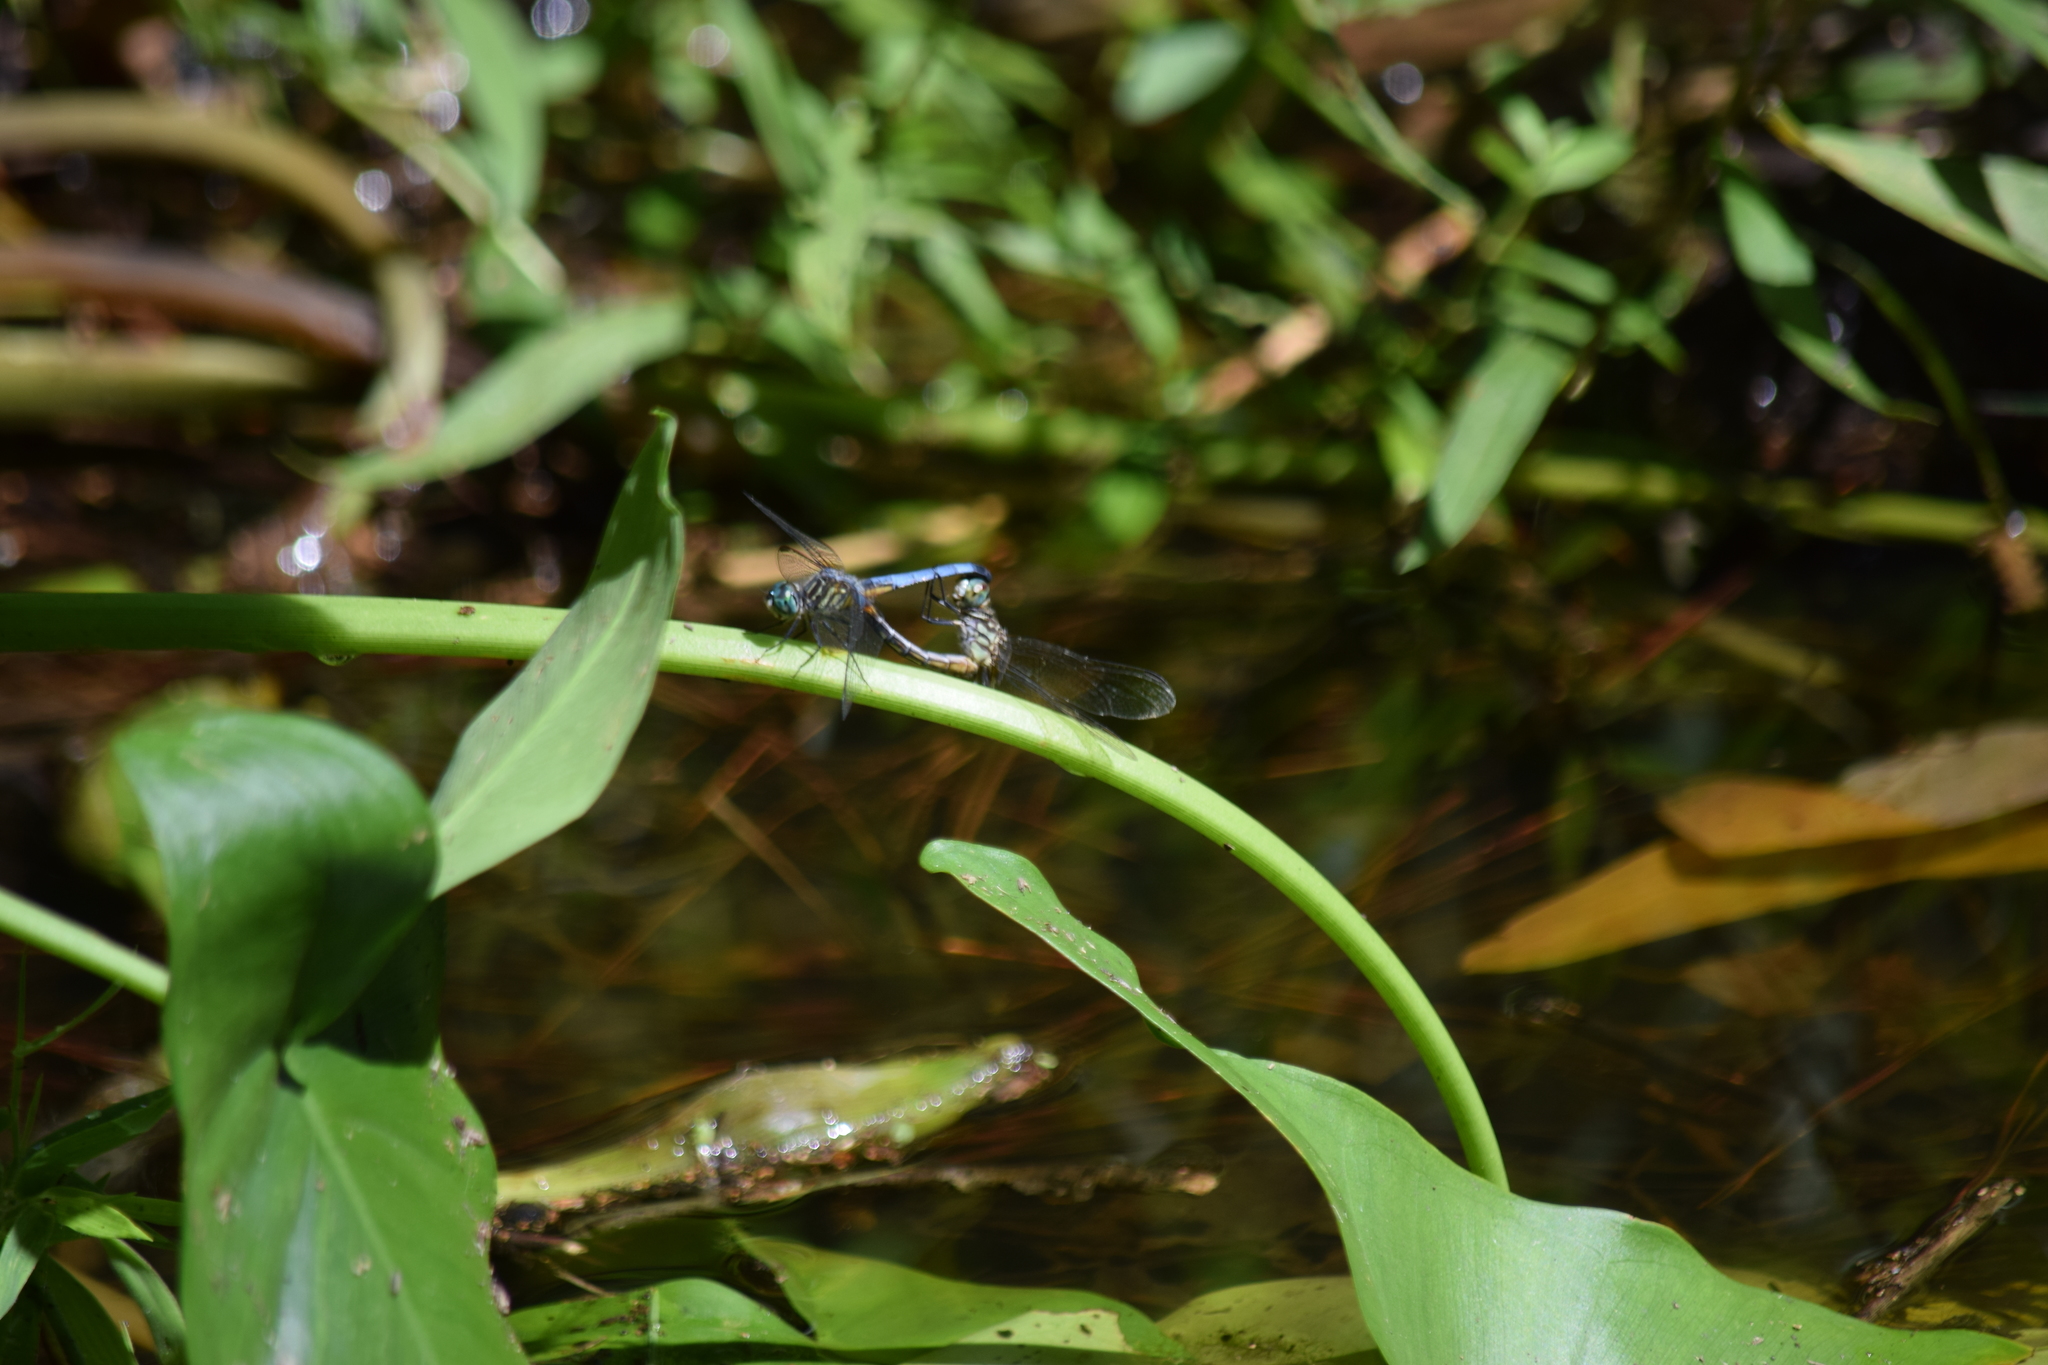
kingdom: Animalia
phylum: Arthropoda
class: Insecta
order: Odonata
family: Libellulidae
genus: Pachydiplax
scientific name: Pachydiplax longipennis
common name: Blue dasher
